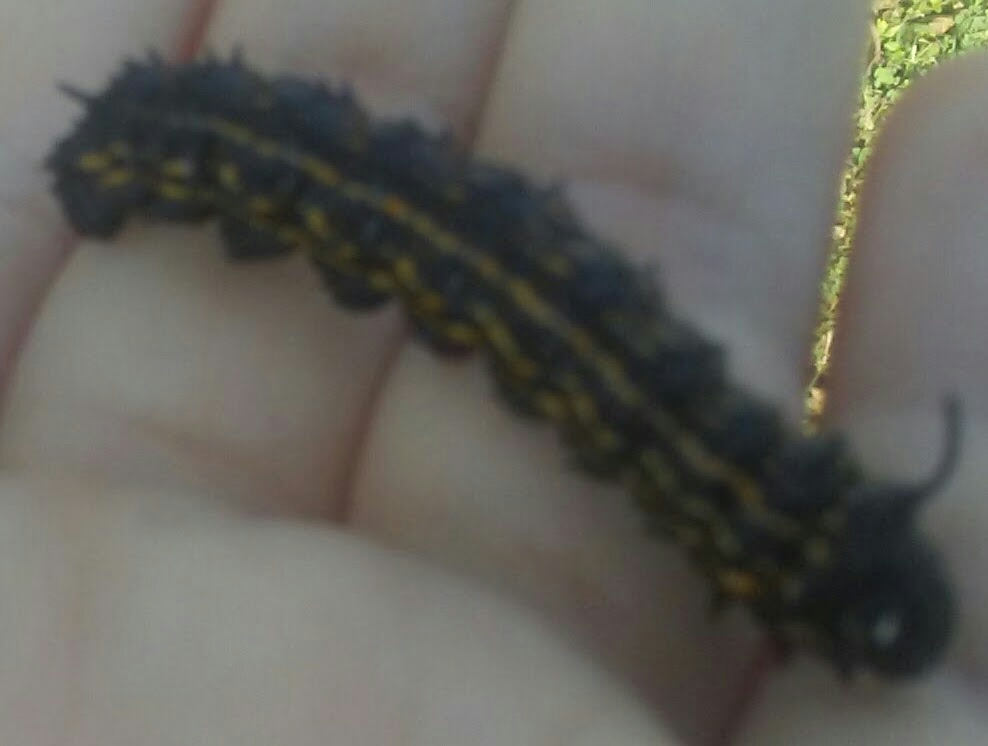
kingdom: Animalia
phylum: Arthropoda
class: Insecta
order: Lepidoptera
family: Saturniidae
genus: Anisota
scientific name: Anisota peigleri
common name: Peigler's oakworm moth
